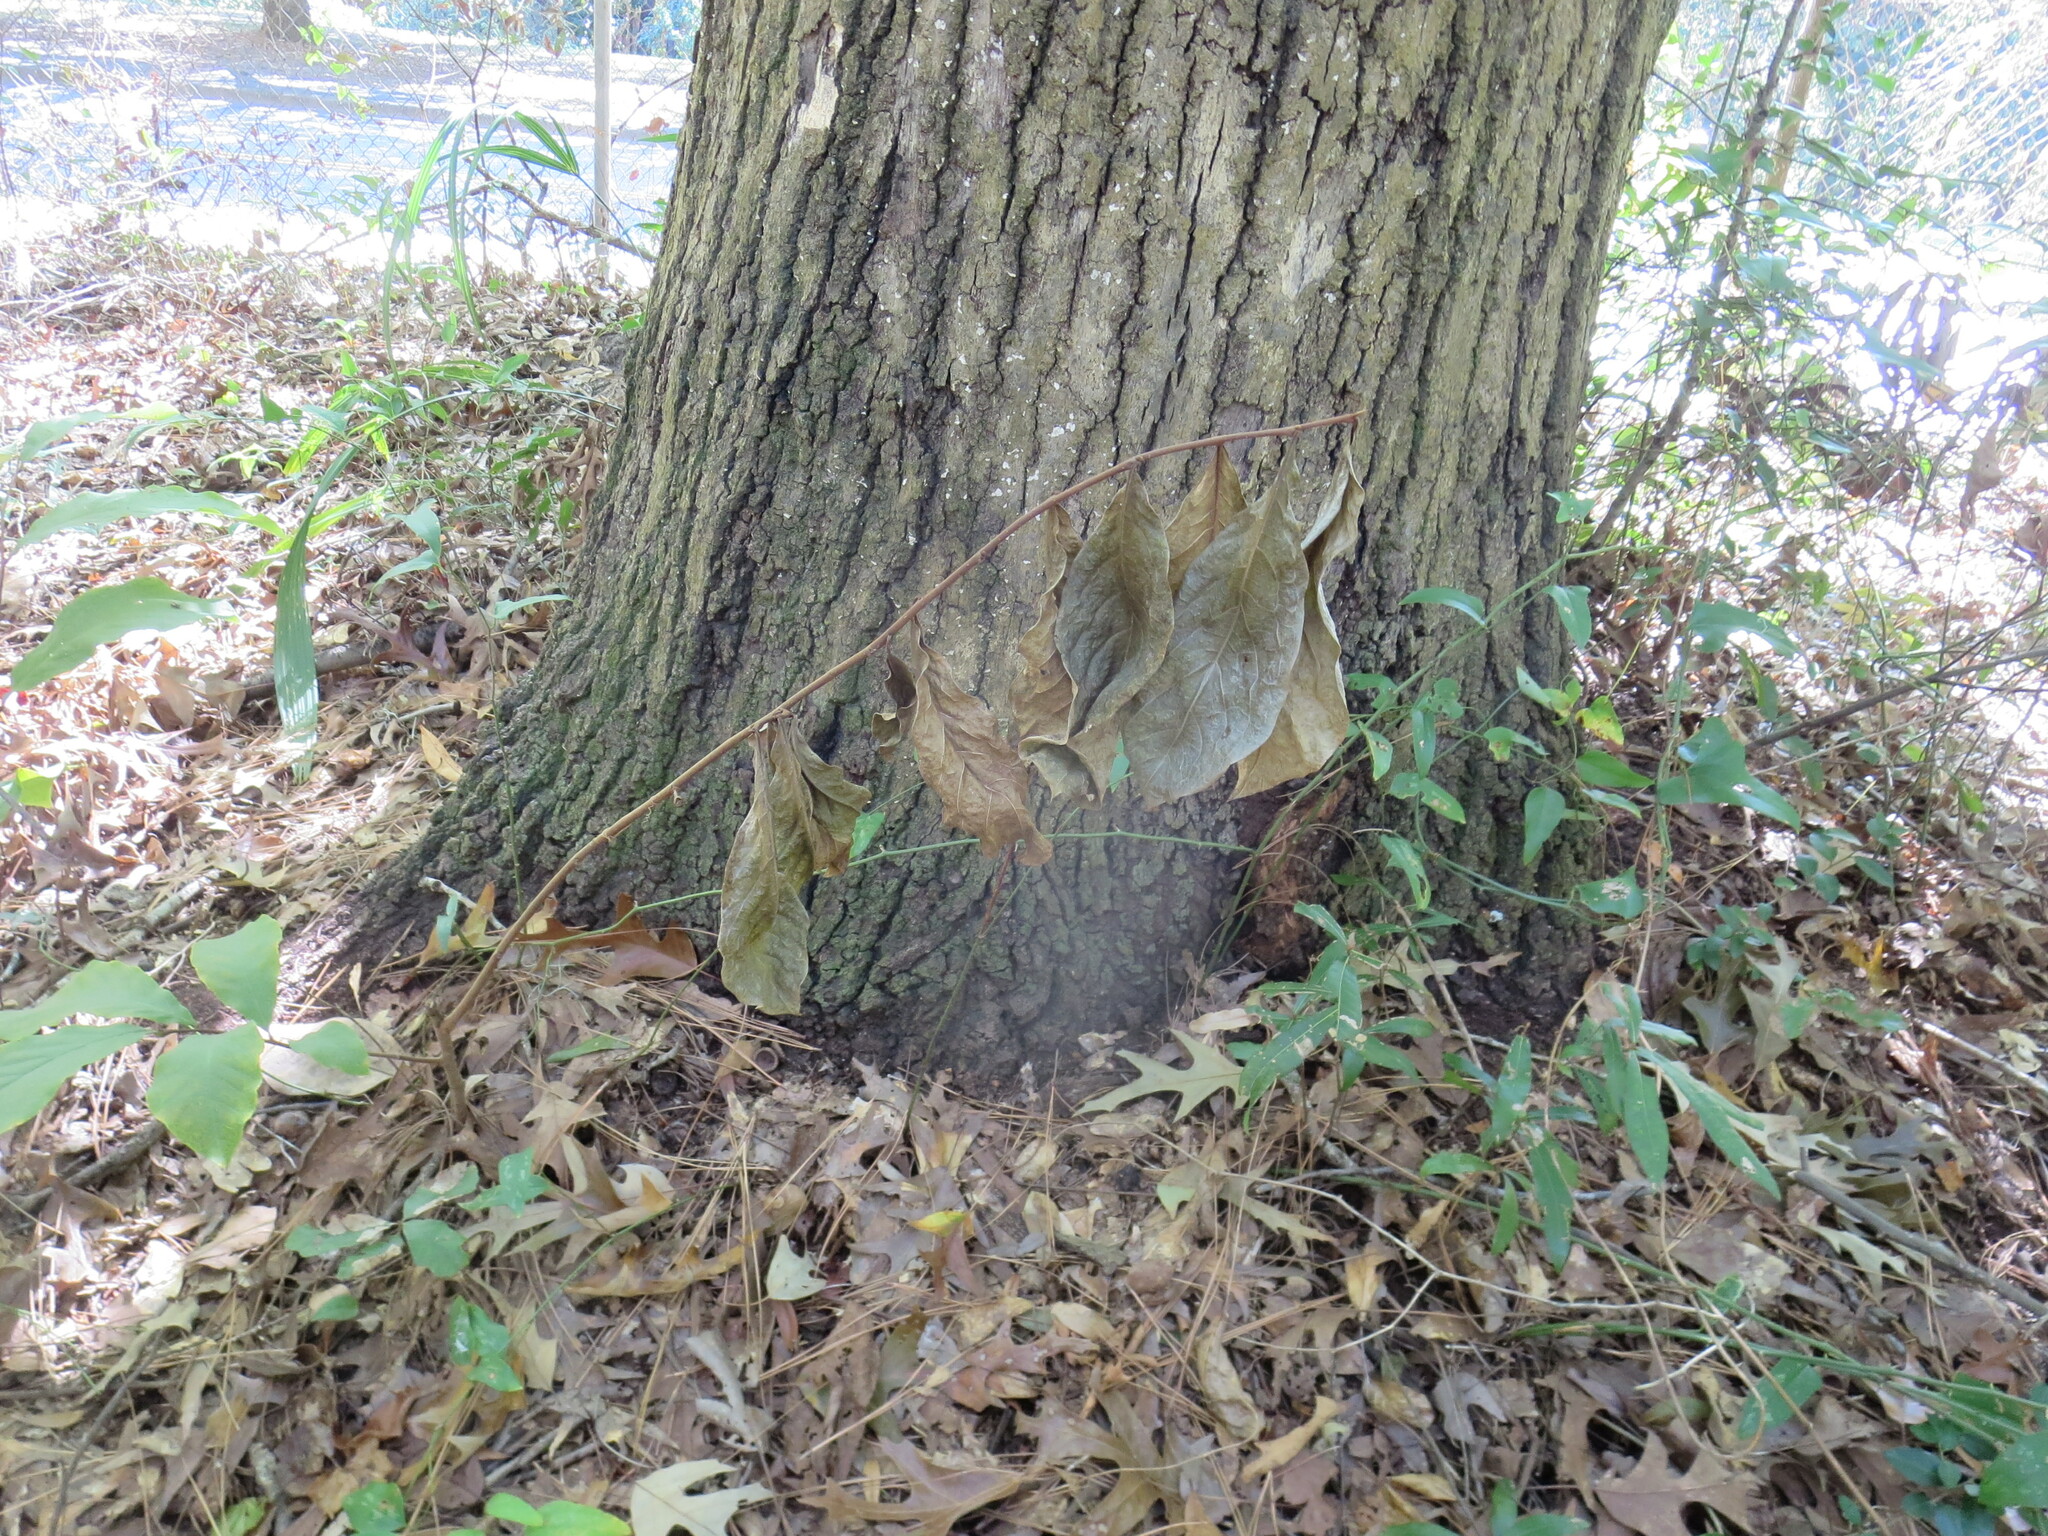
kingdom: Plantae
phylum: Tracheophyta
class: Magnoliopsida
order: Magnoliales
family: Annonaceae
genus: Asimina
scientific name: Asimina parviflora
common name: Dwarf pawpaw
